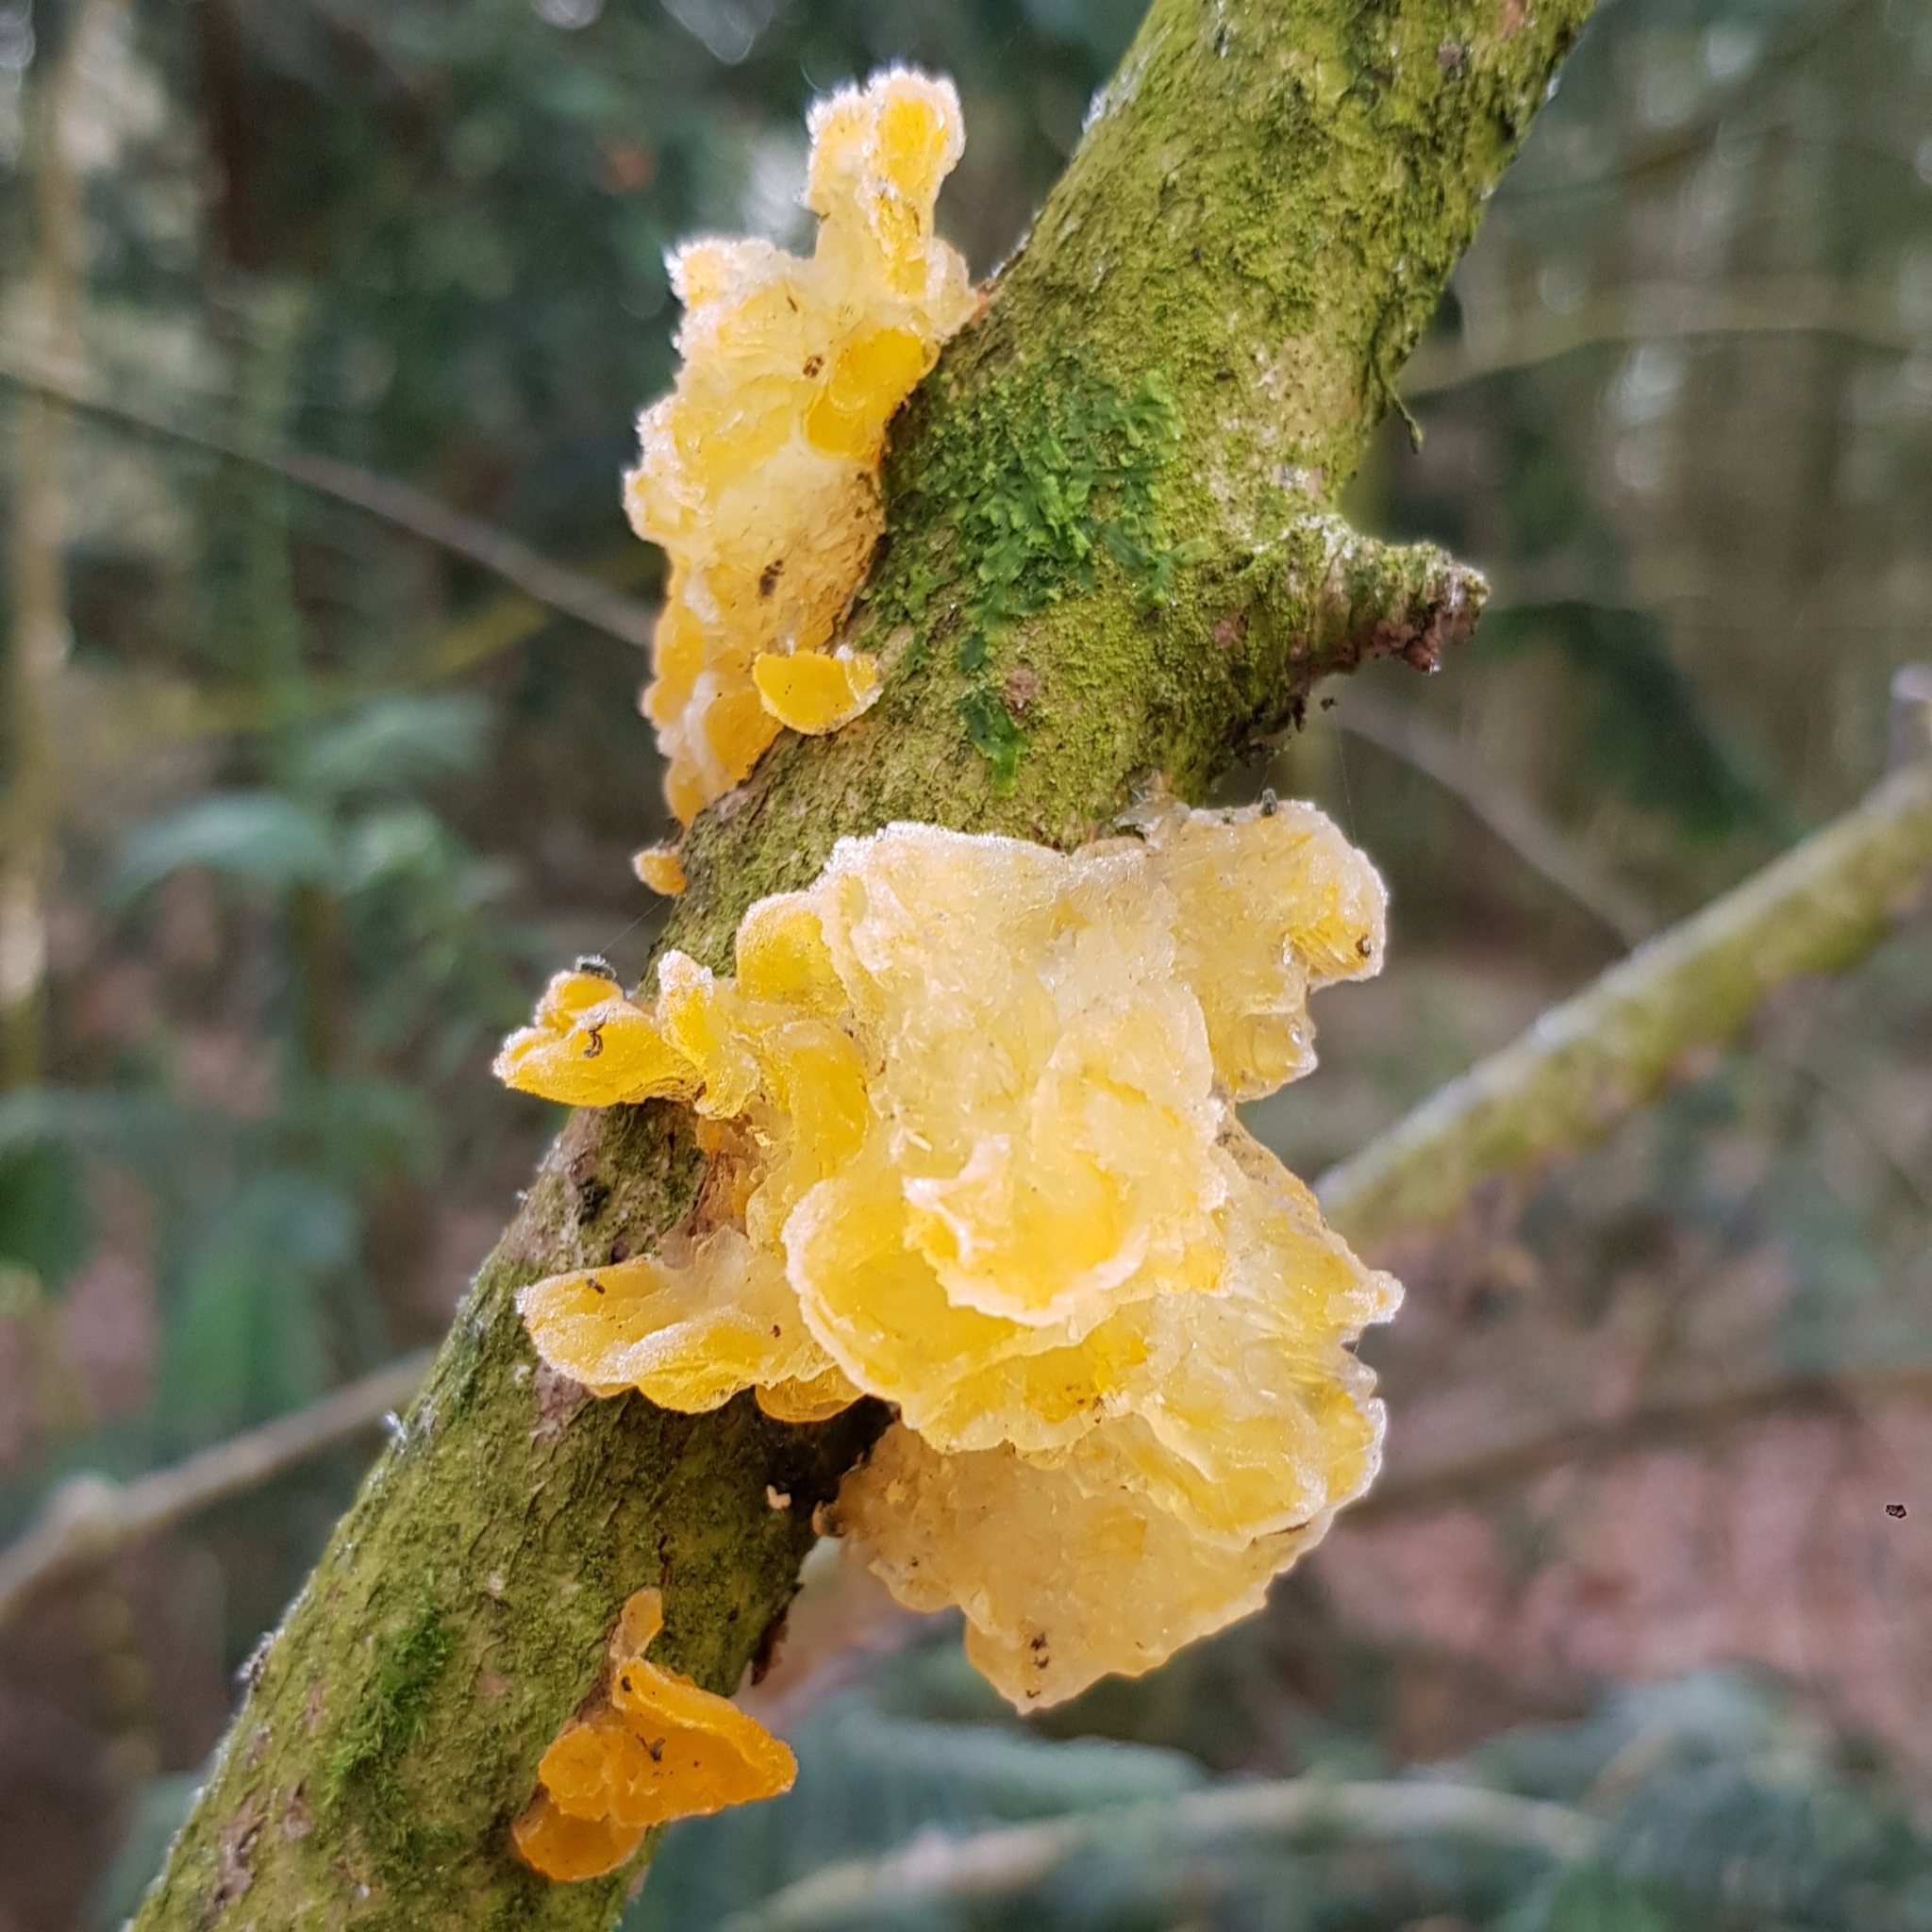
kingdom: Fungi
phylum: Basidiomycota
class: Tremellomycetes
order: Tremellales
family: Tremellaceae
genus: Tremella
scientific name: Tremella mesenterica
